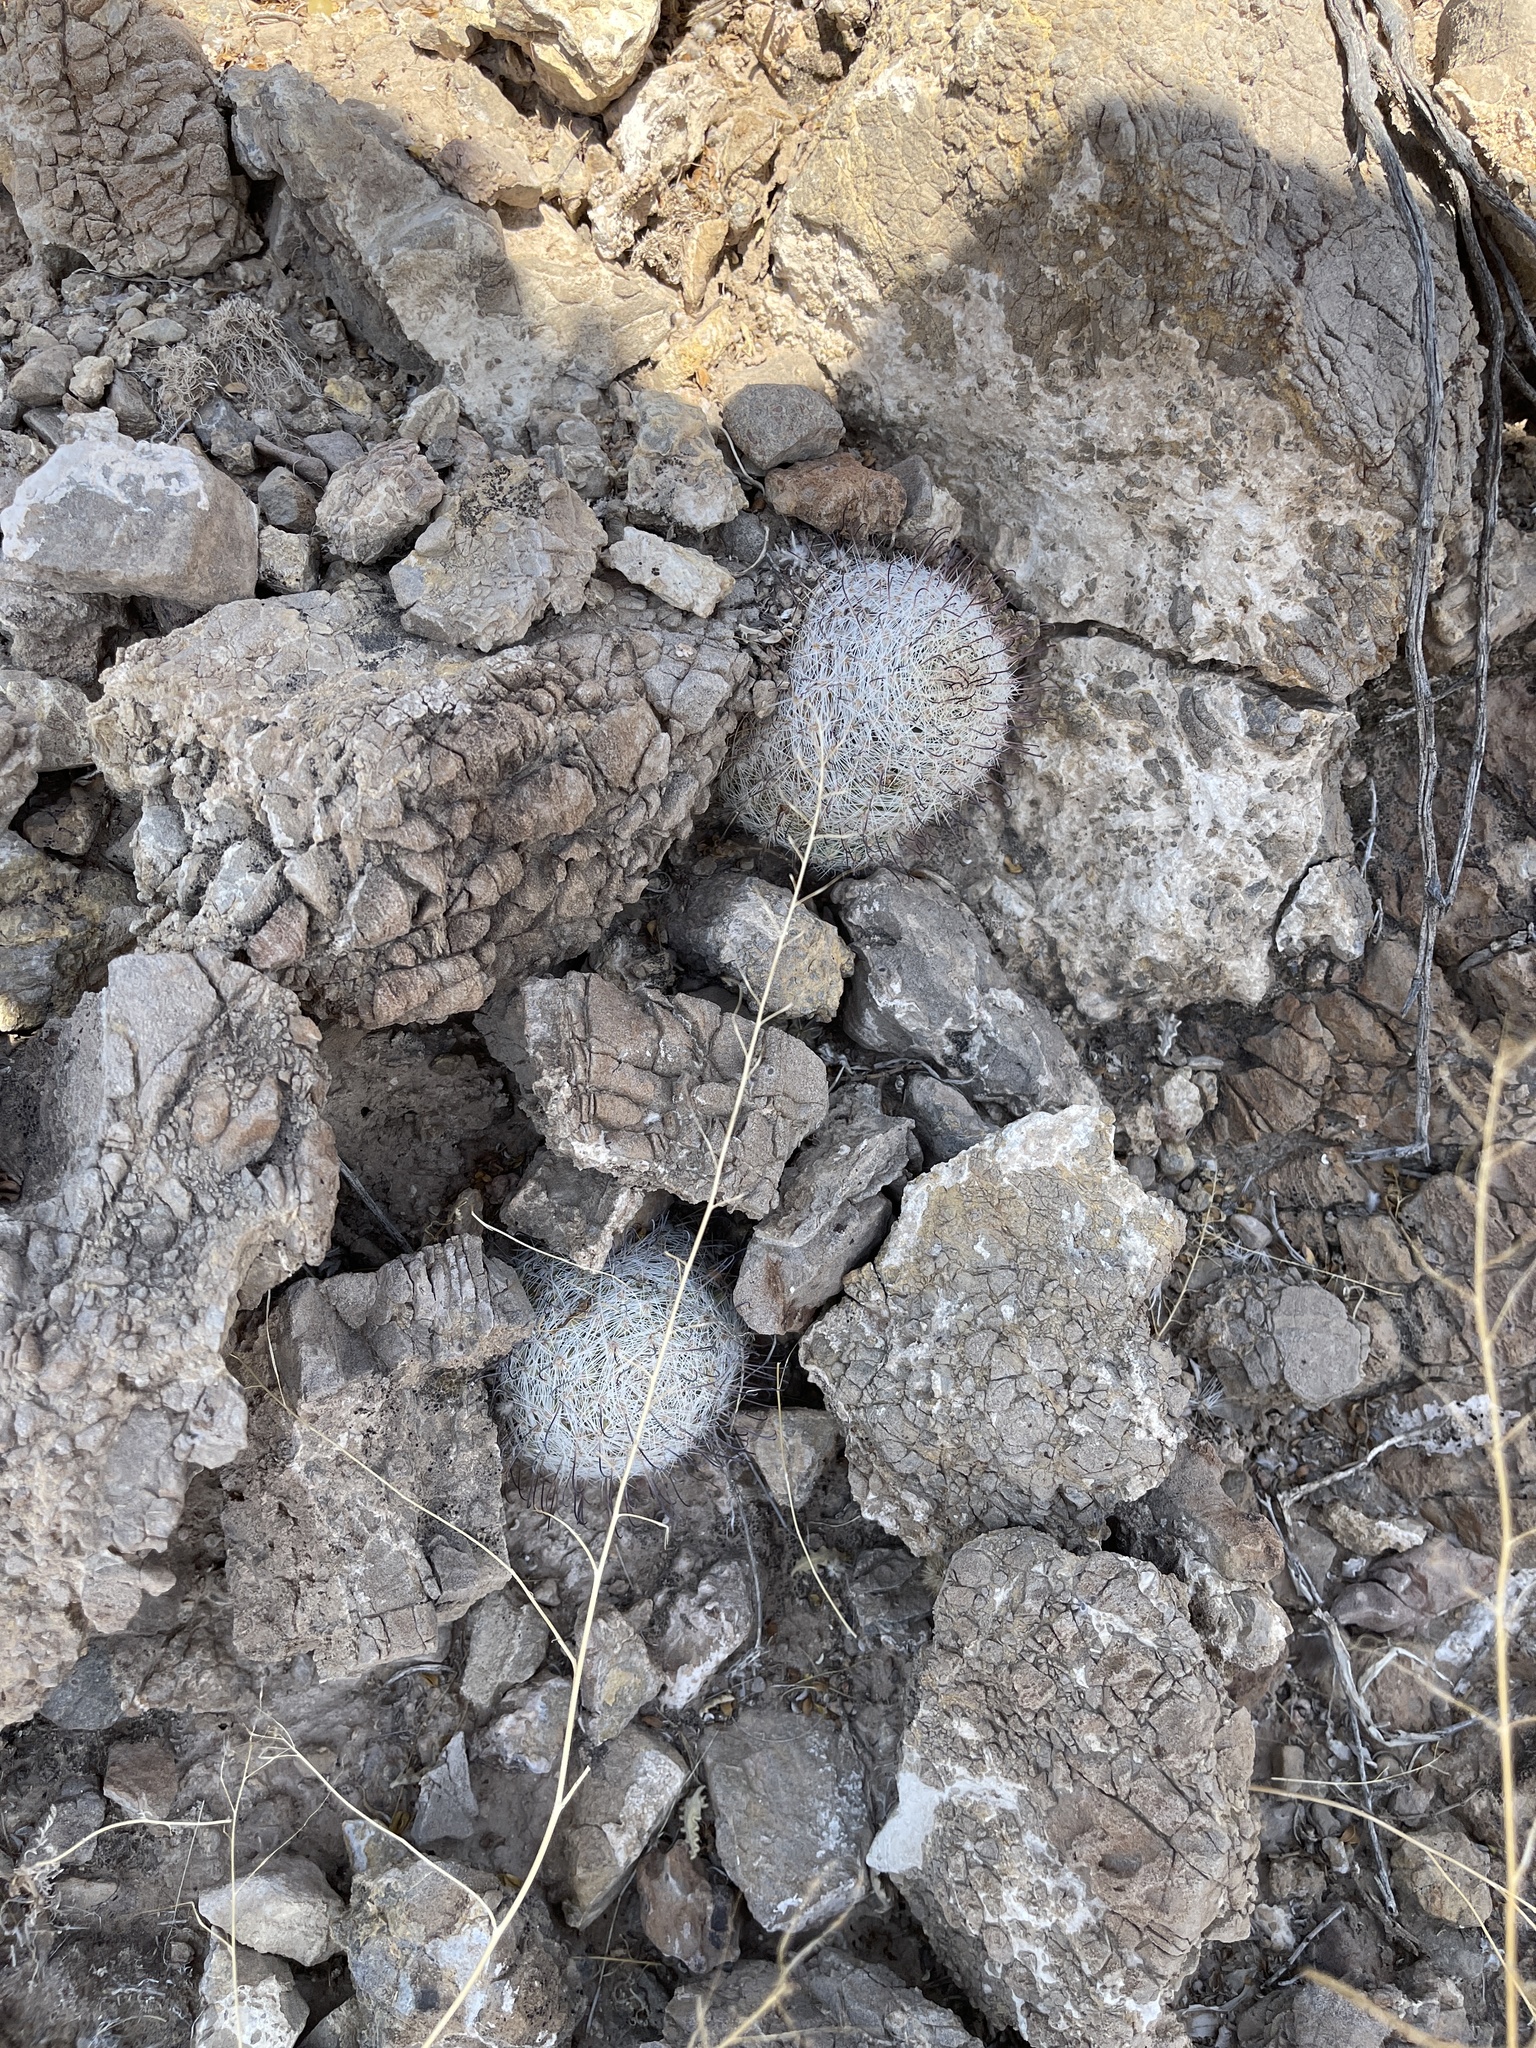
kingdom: Plantae
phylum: Tracheophyta
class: Magnoliopsida
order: Caryophyllales
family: Cactaceae
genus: Cochemiea
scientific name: Cochemiea grahamii
